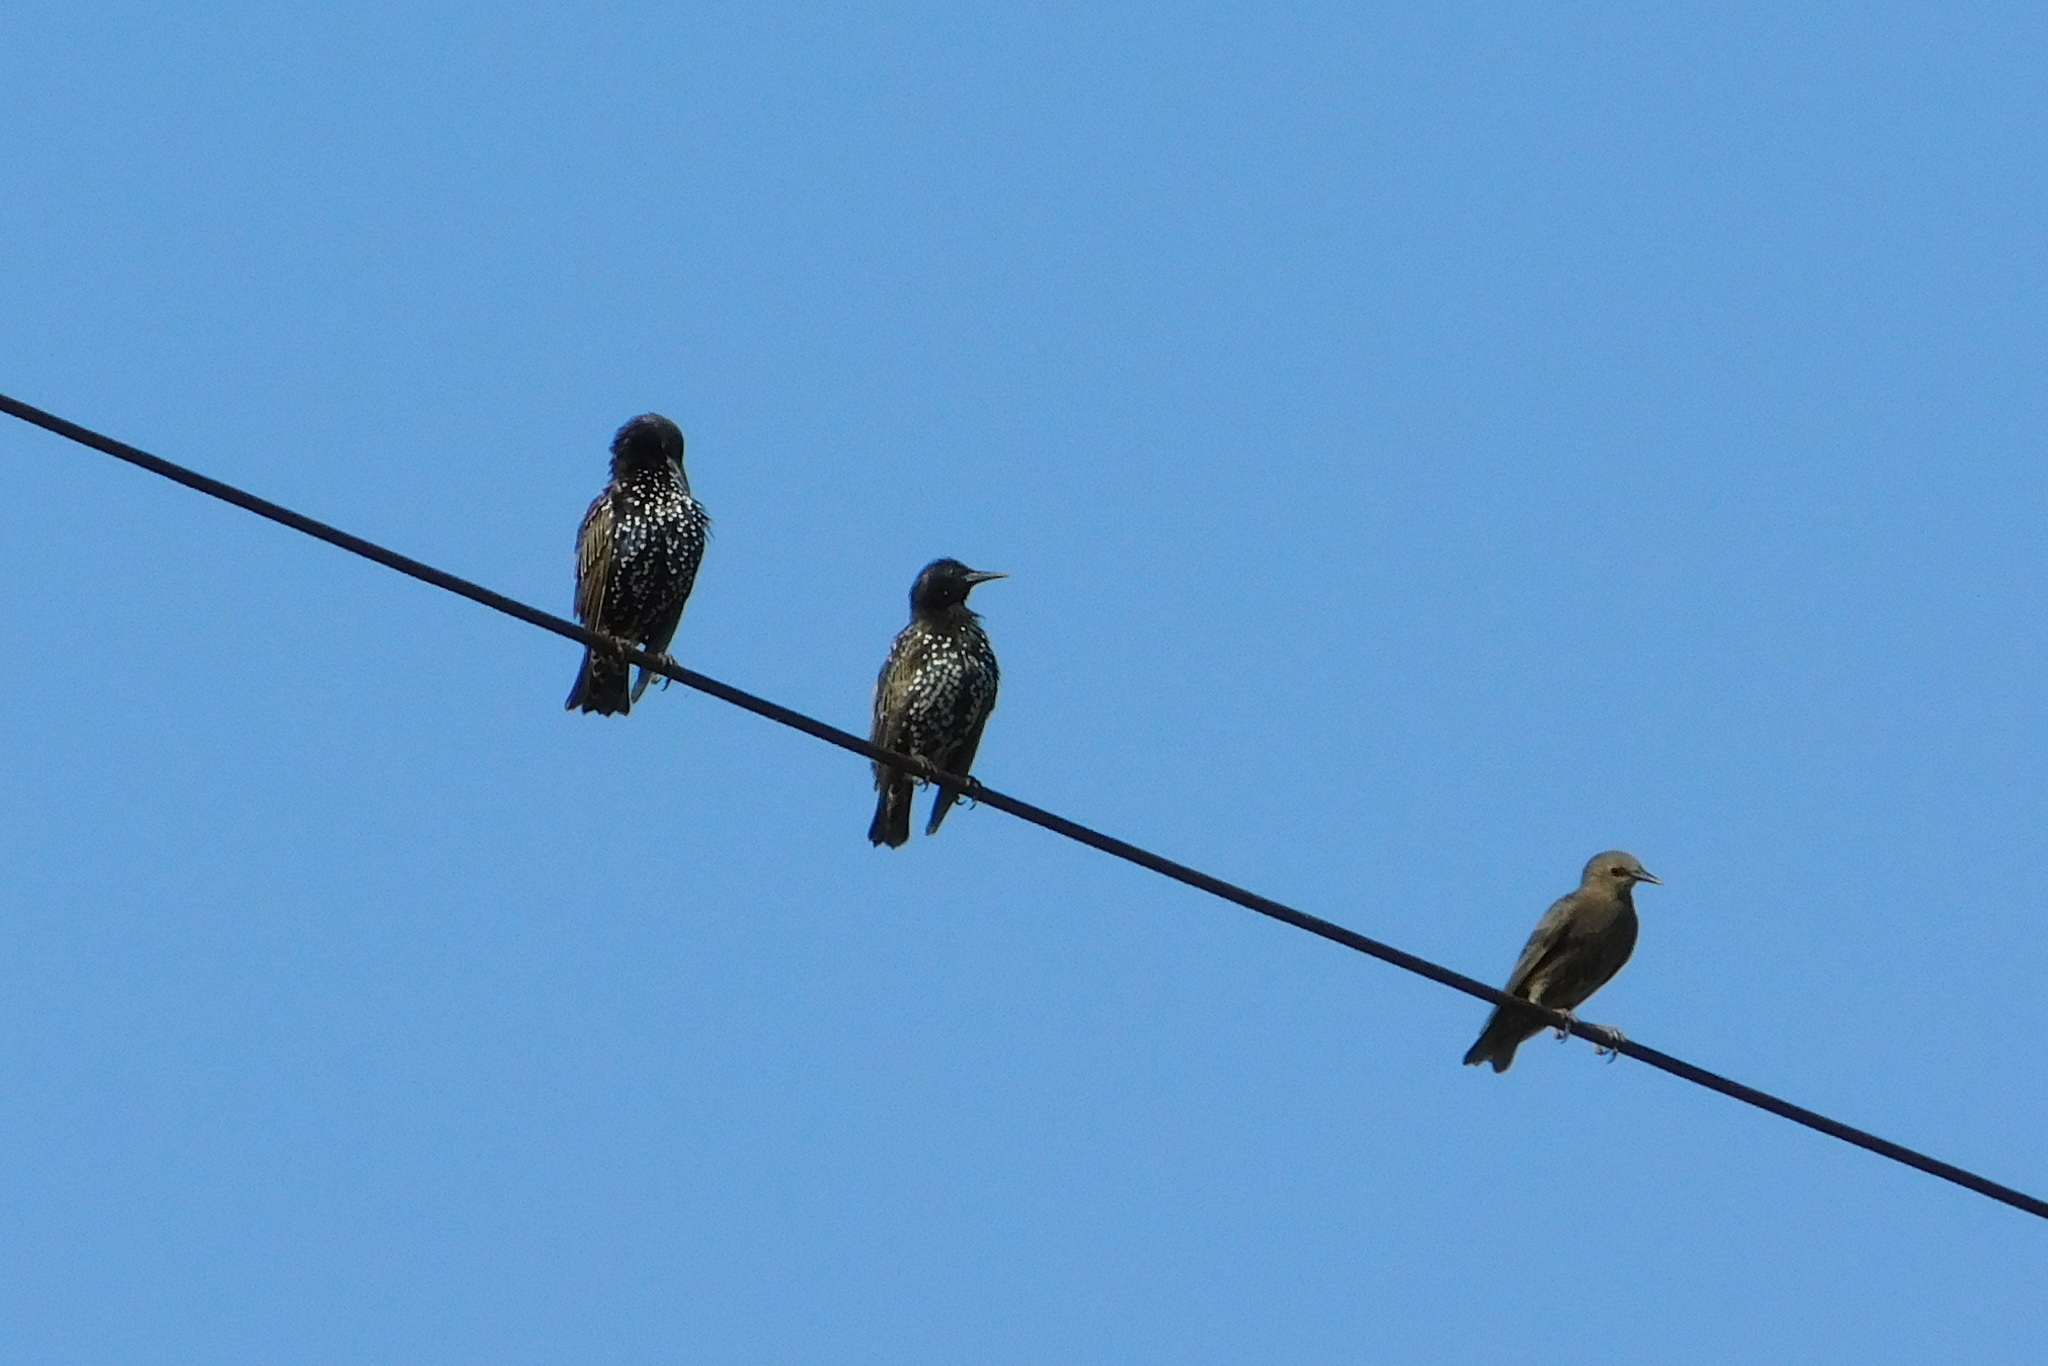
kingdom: Animalia
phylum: Chordata
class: Aves
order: Passeriformes
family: Sturnidae
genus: Sturnus
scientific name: Sturnus vulgaris
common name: Common starling
